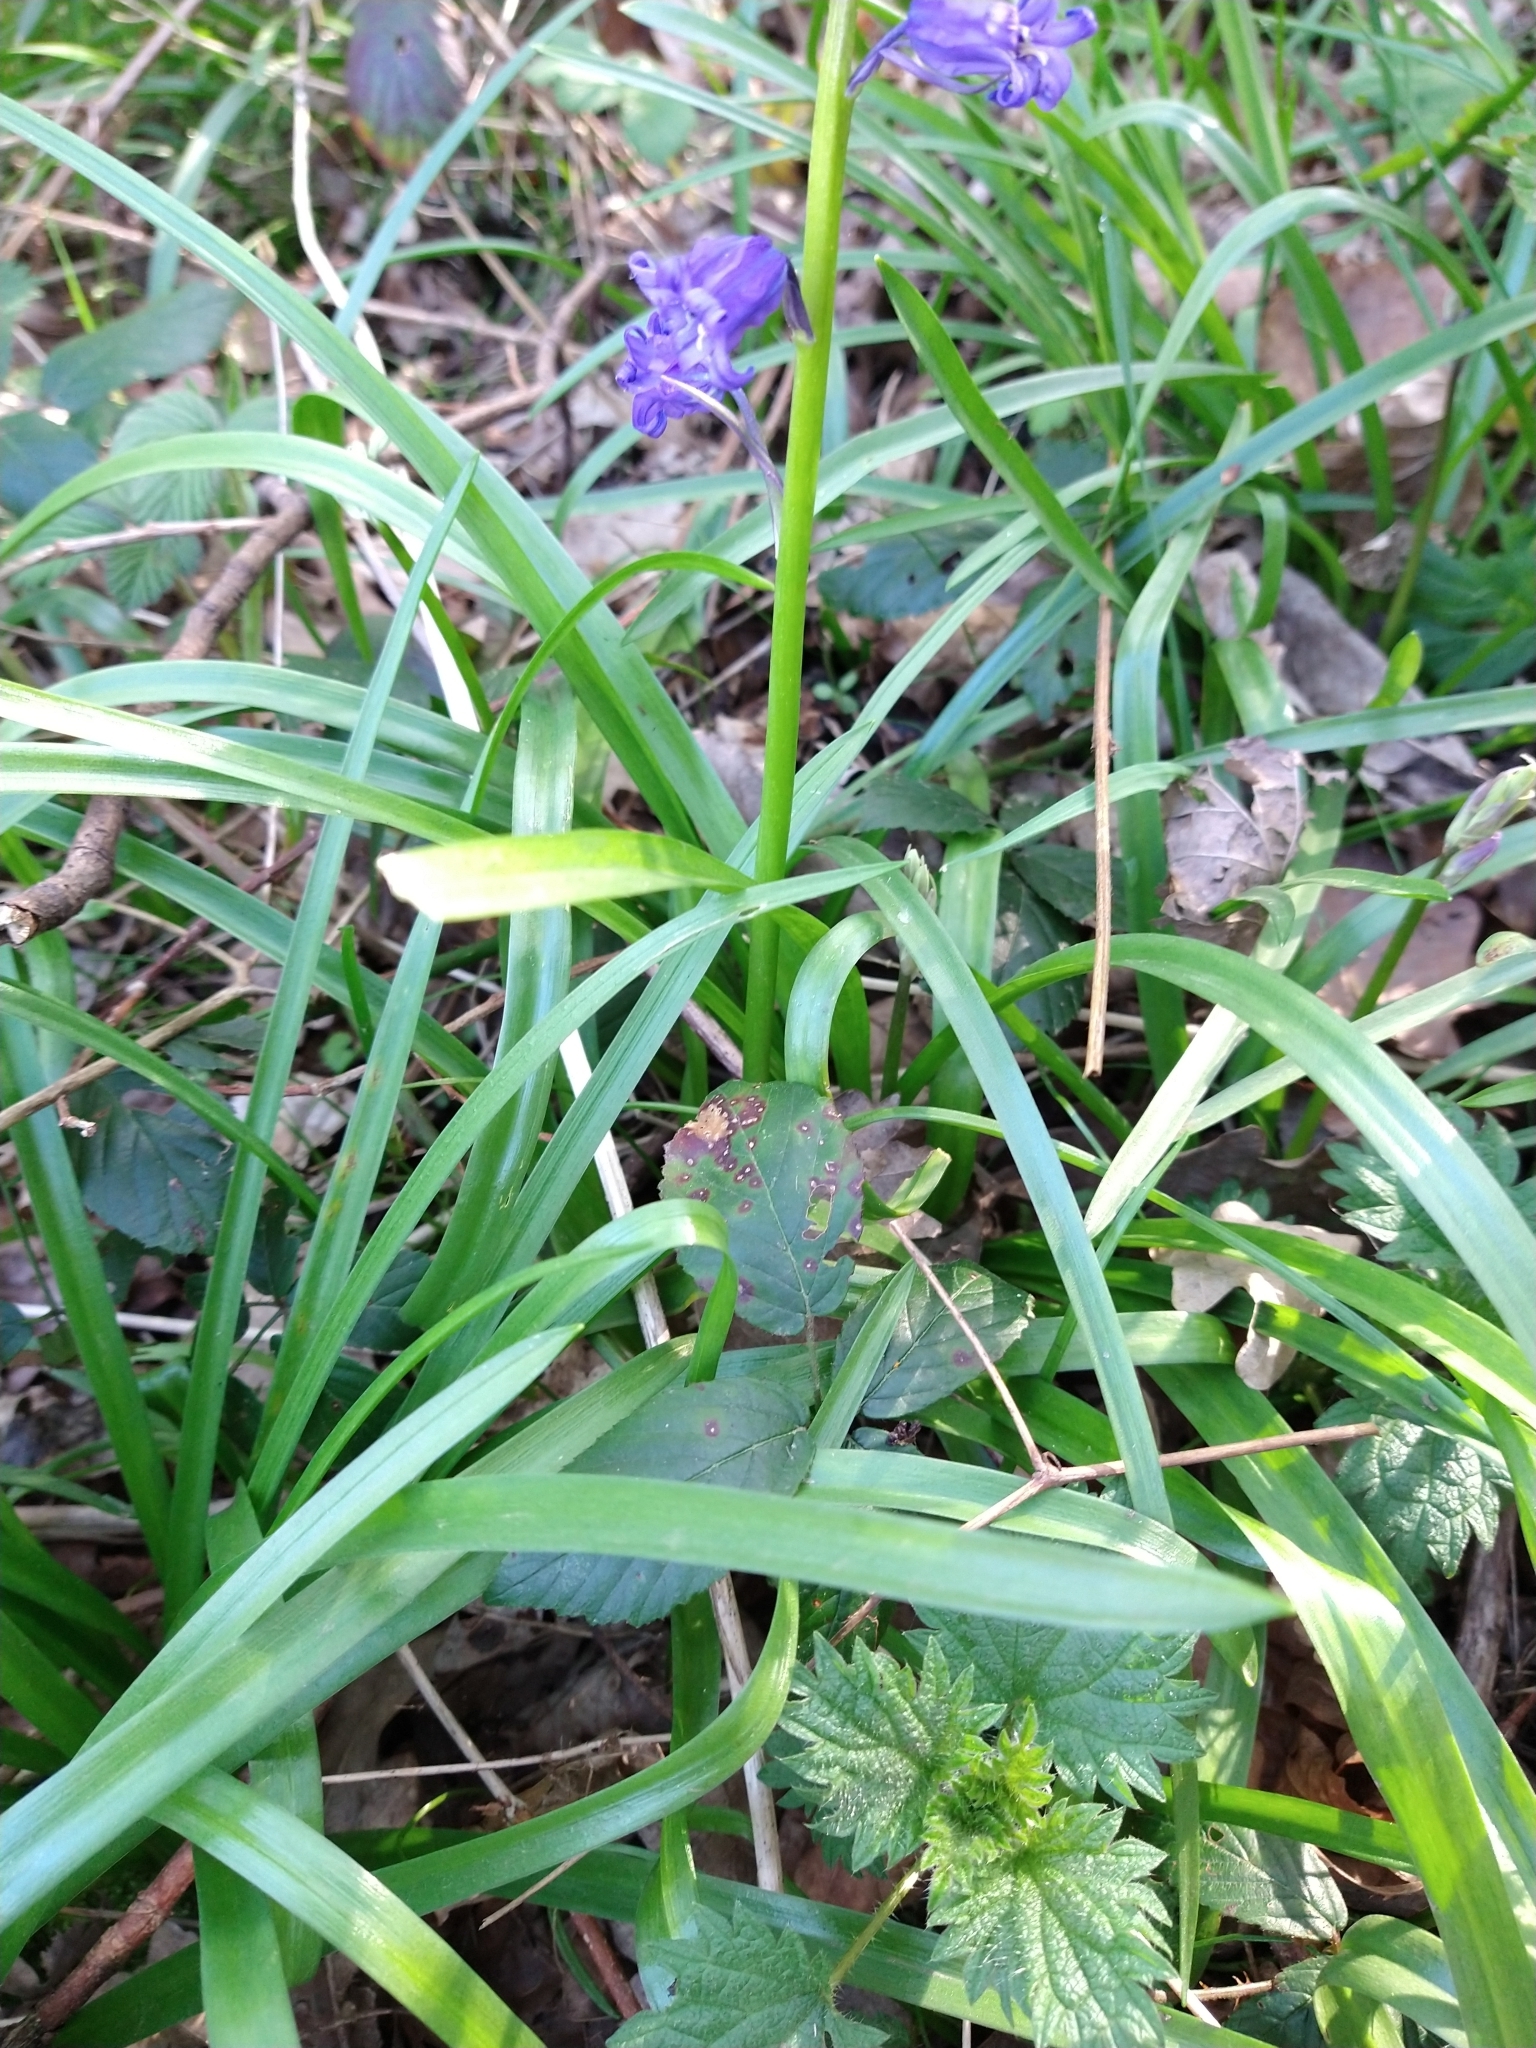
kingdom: Plantae
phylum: Tracheophyta
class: Liliopsida
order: Asparagales
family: Asparagaceae
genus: Hyacinthoides
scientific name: Hyacinthoides non-scripta
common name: Bluebell
